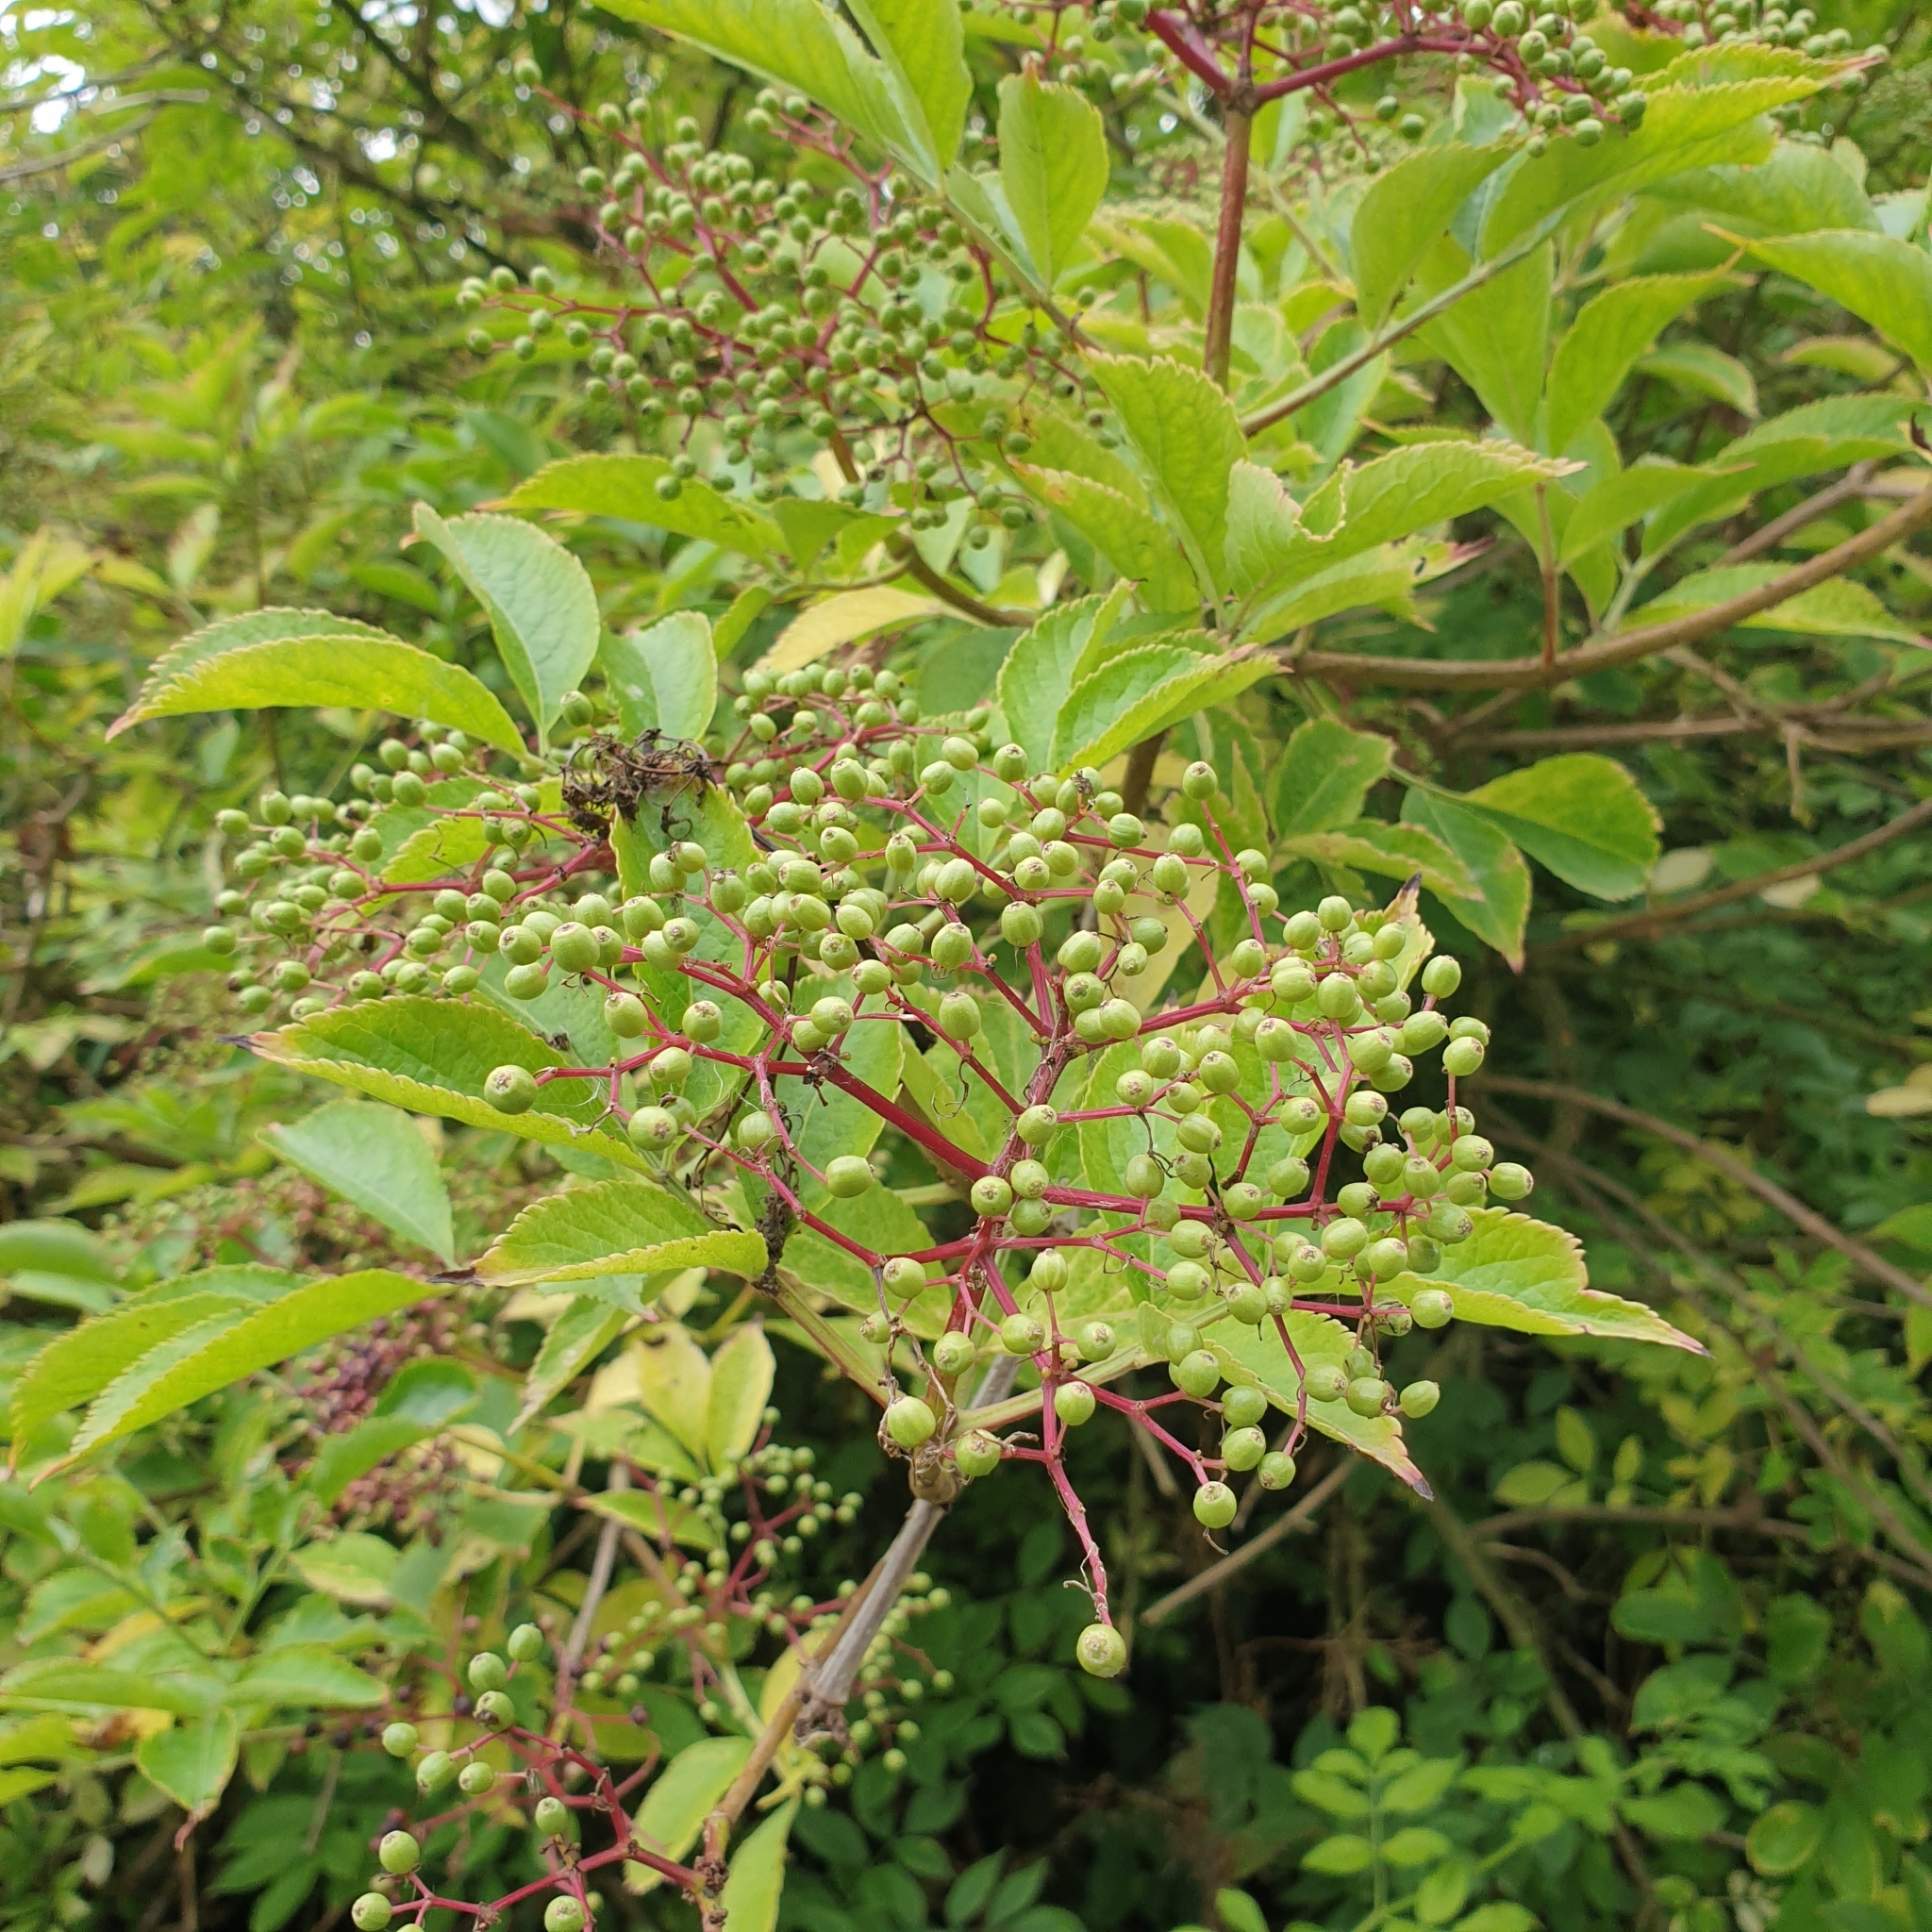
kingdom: Plantae
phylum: Tracheophyta
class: Magnoliopsida
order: Dipsacales
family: Viburnaceae
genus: Sambucus
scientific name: Sambucus nigra
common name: Elder
